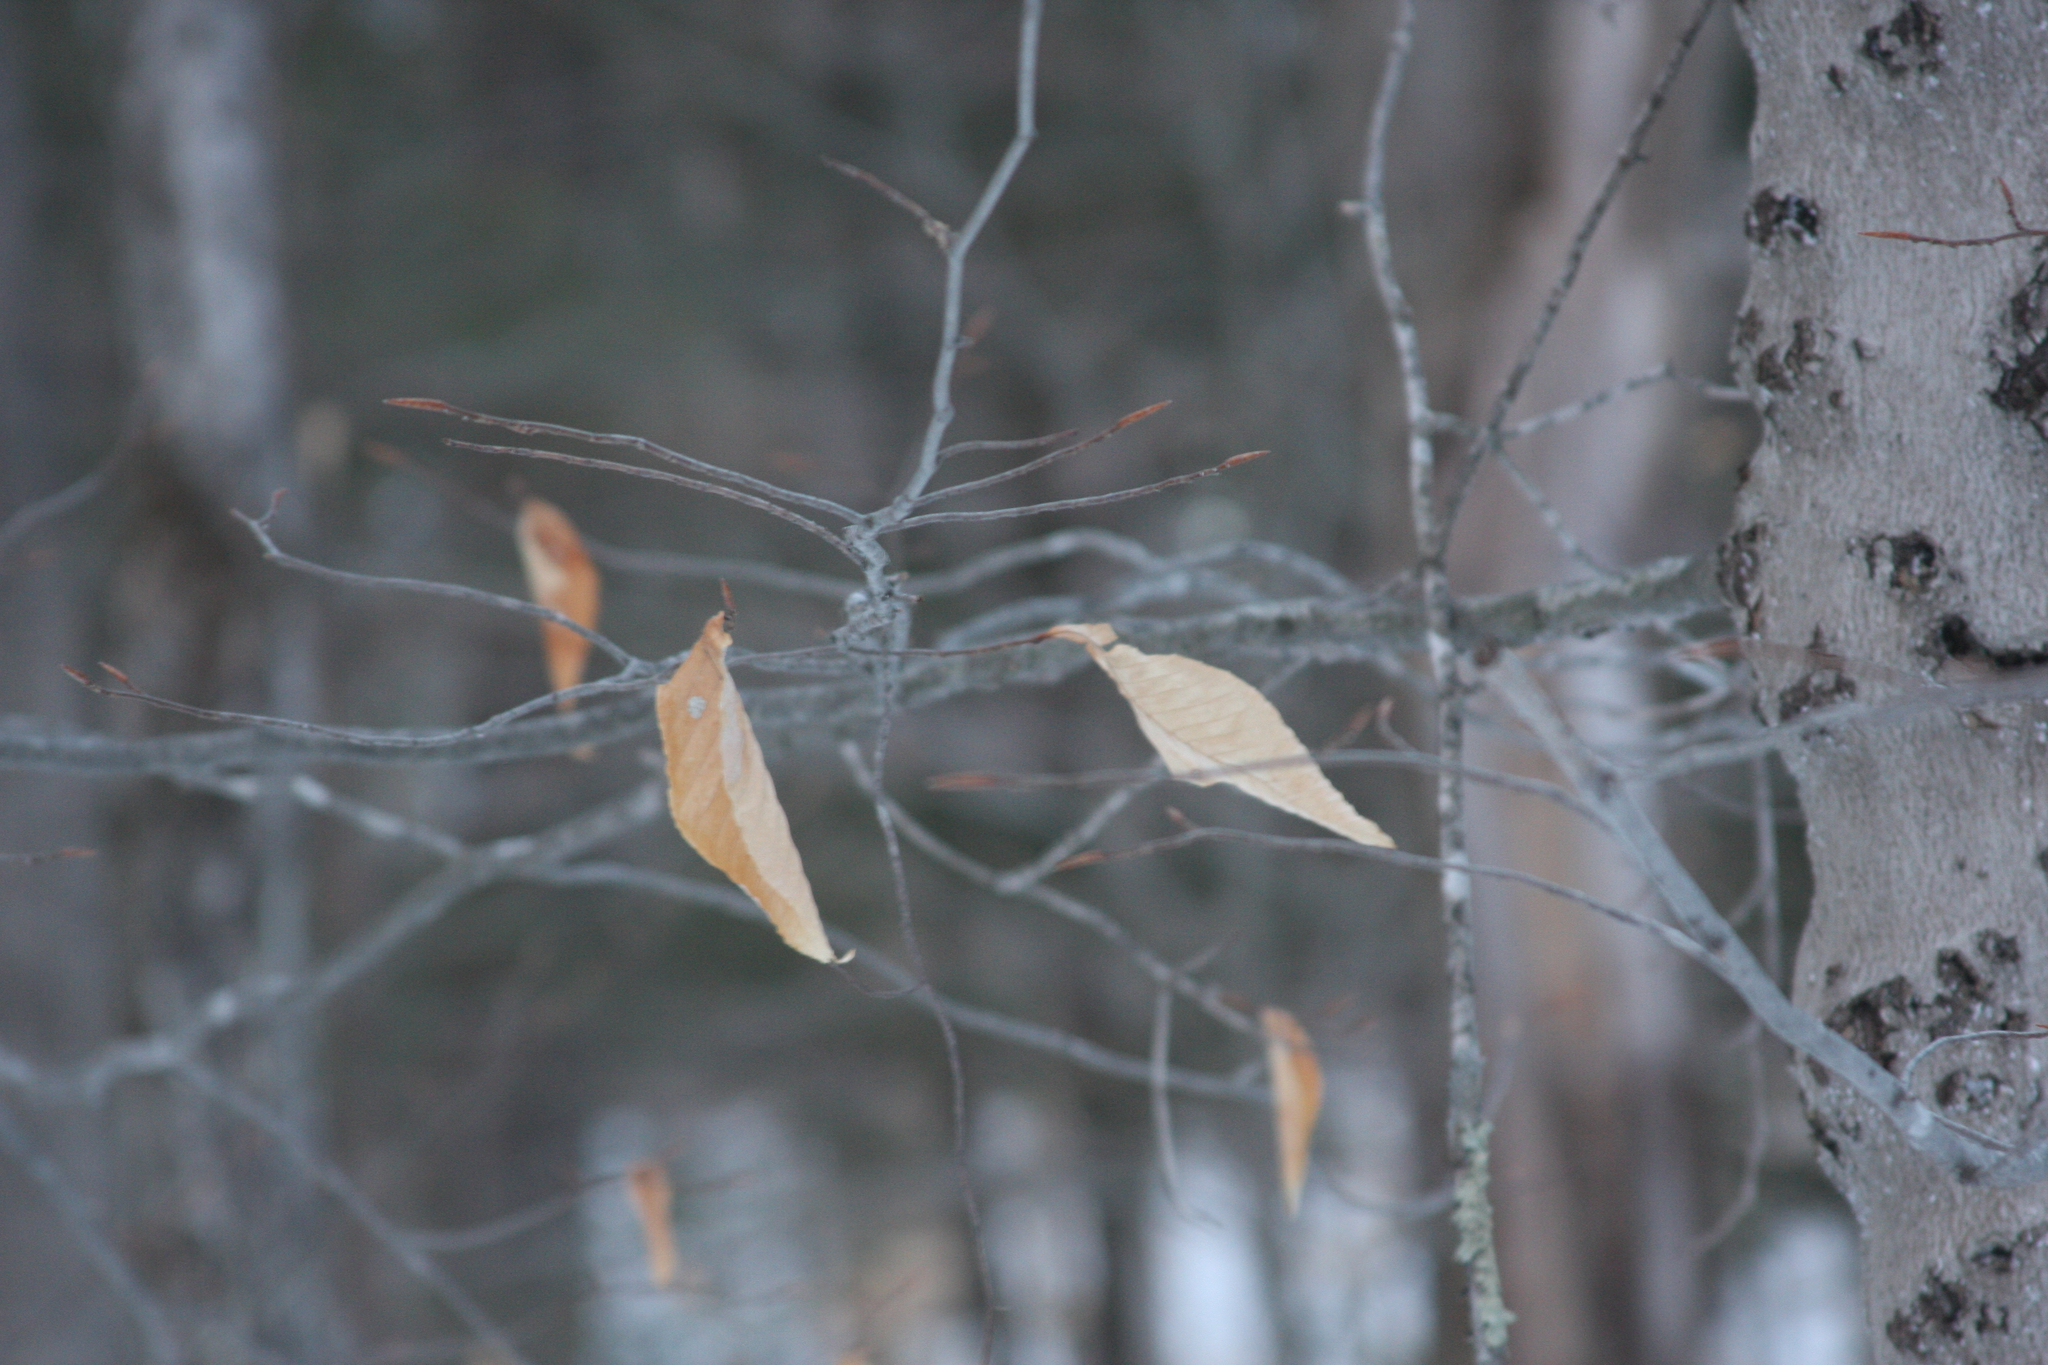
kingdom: Plantae
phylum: Tracheophyta
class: Magnoliopsida
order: Fagales
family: Fagaceae
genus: Fagus
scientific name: Fagus grandifolia
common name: American beech
